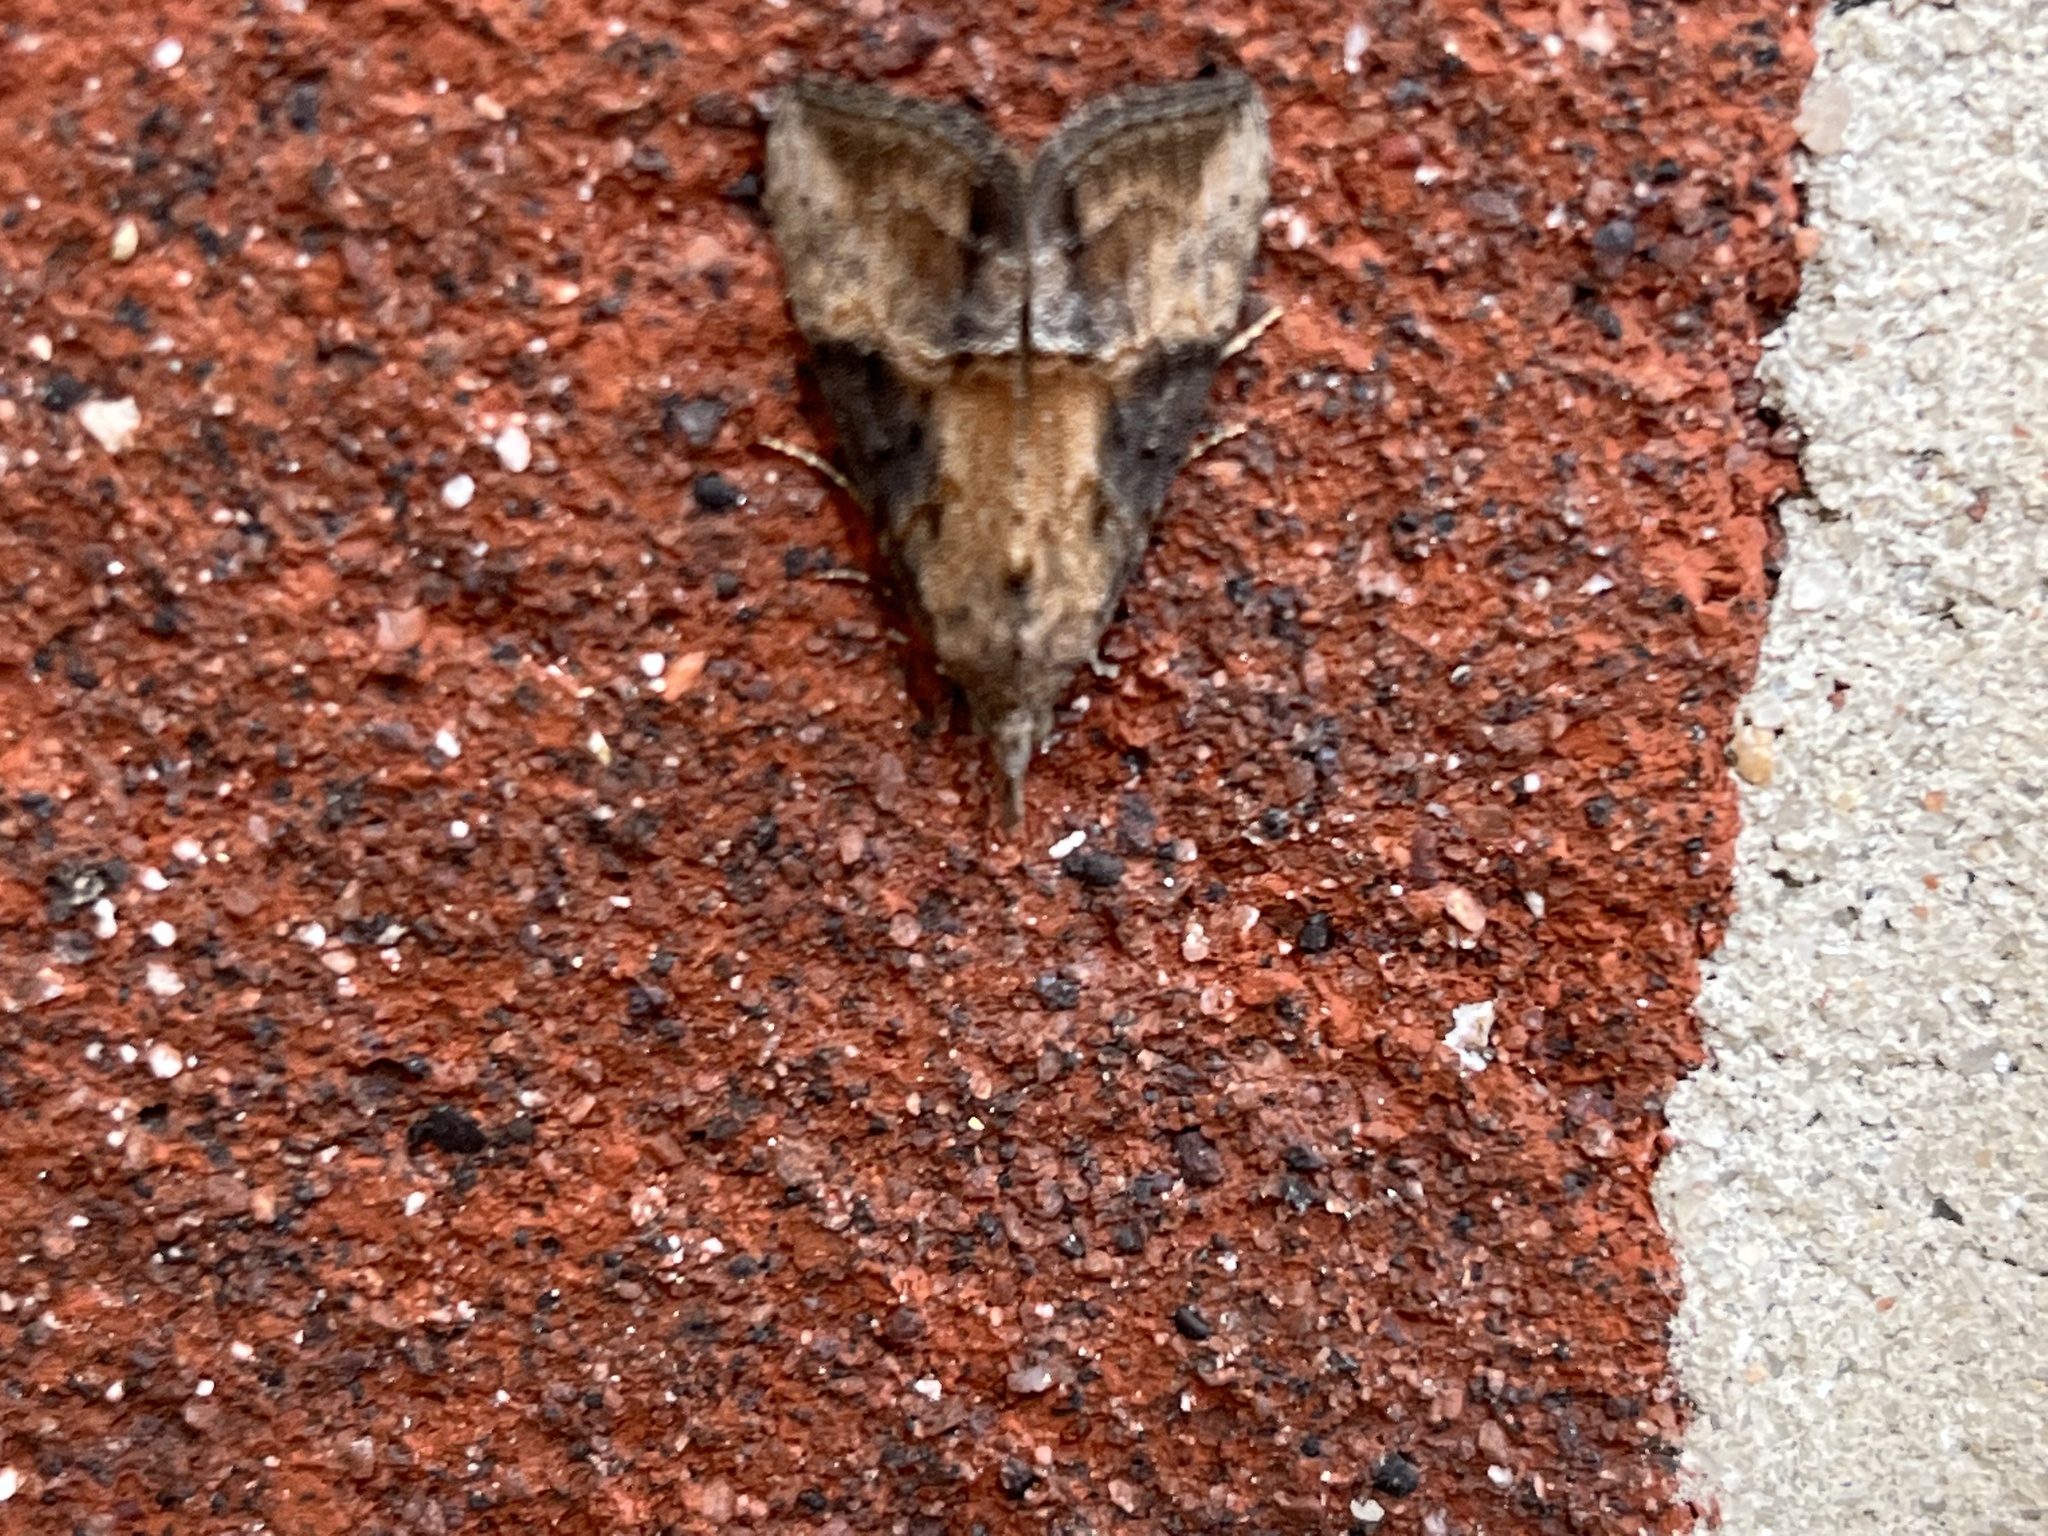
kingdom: Animalia
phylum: Arthropoda
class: Insecta
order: Lepidoptera
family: Erebidae
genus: Hypena
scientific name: Hypena scabra
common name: Green cloverworm
